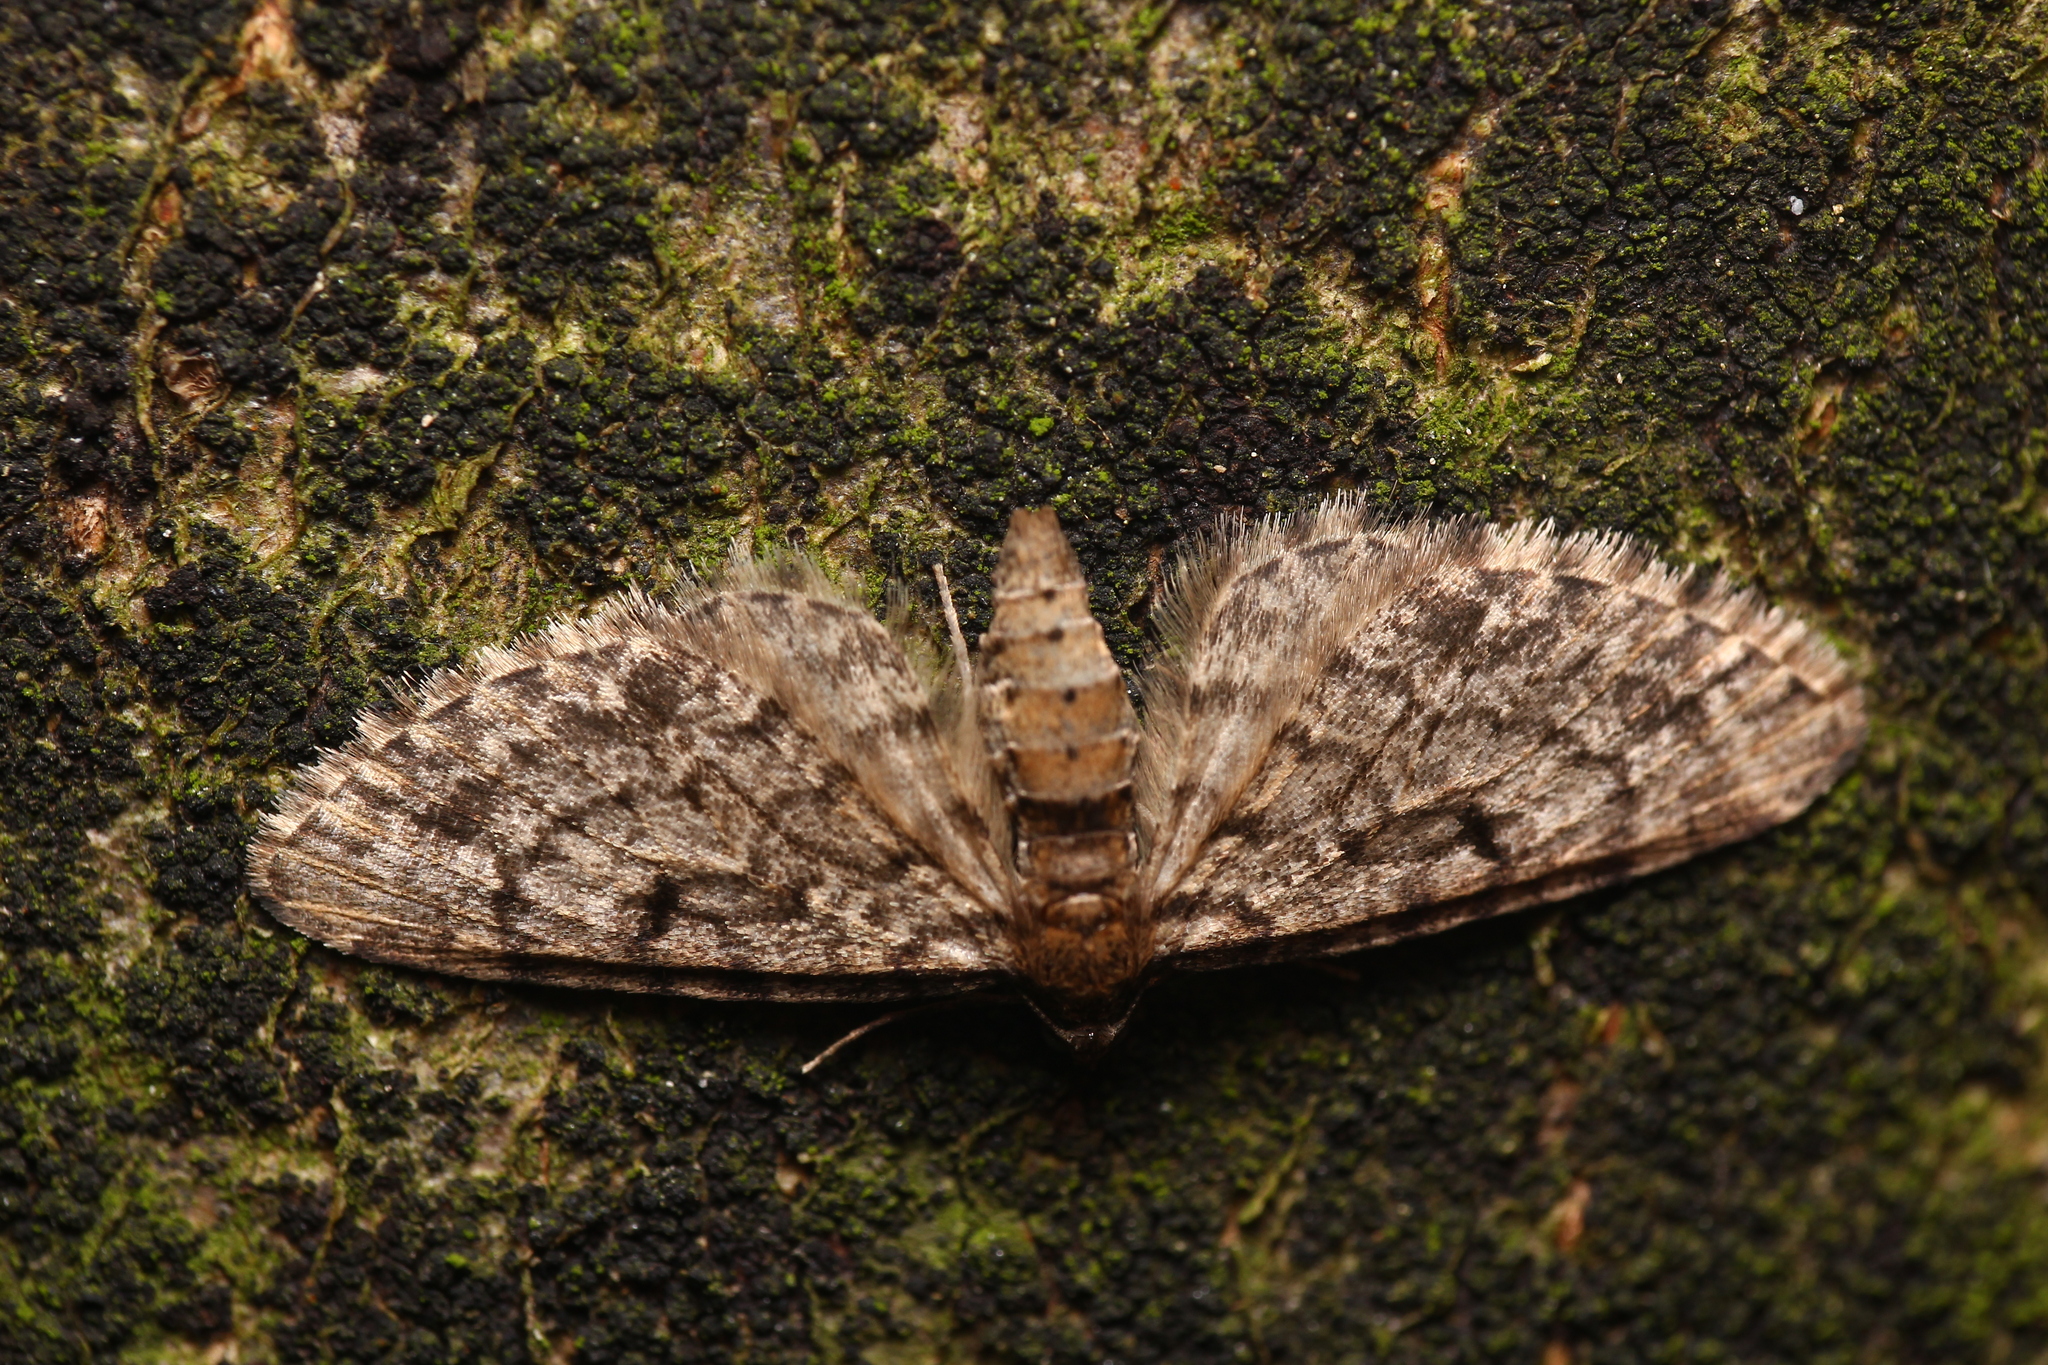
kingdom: Animalia
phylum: Arthropoda
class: Insecta
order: Lepidoptera
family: Geometridae
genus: Eupithecia
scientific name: Eupithecia tantillaria
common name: Dwarf pug
